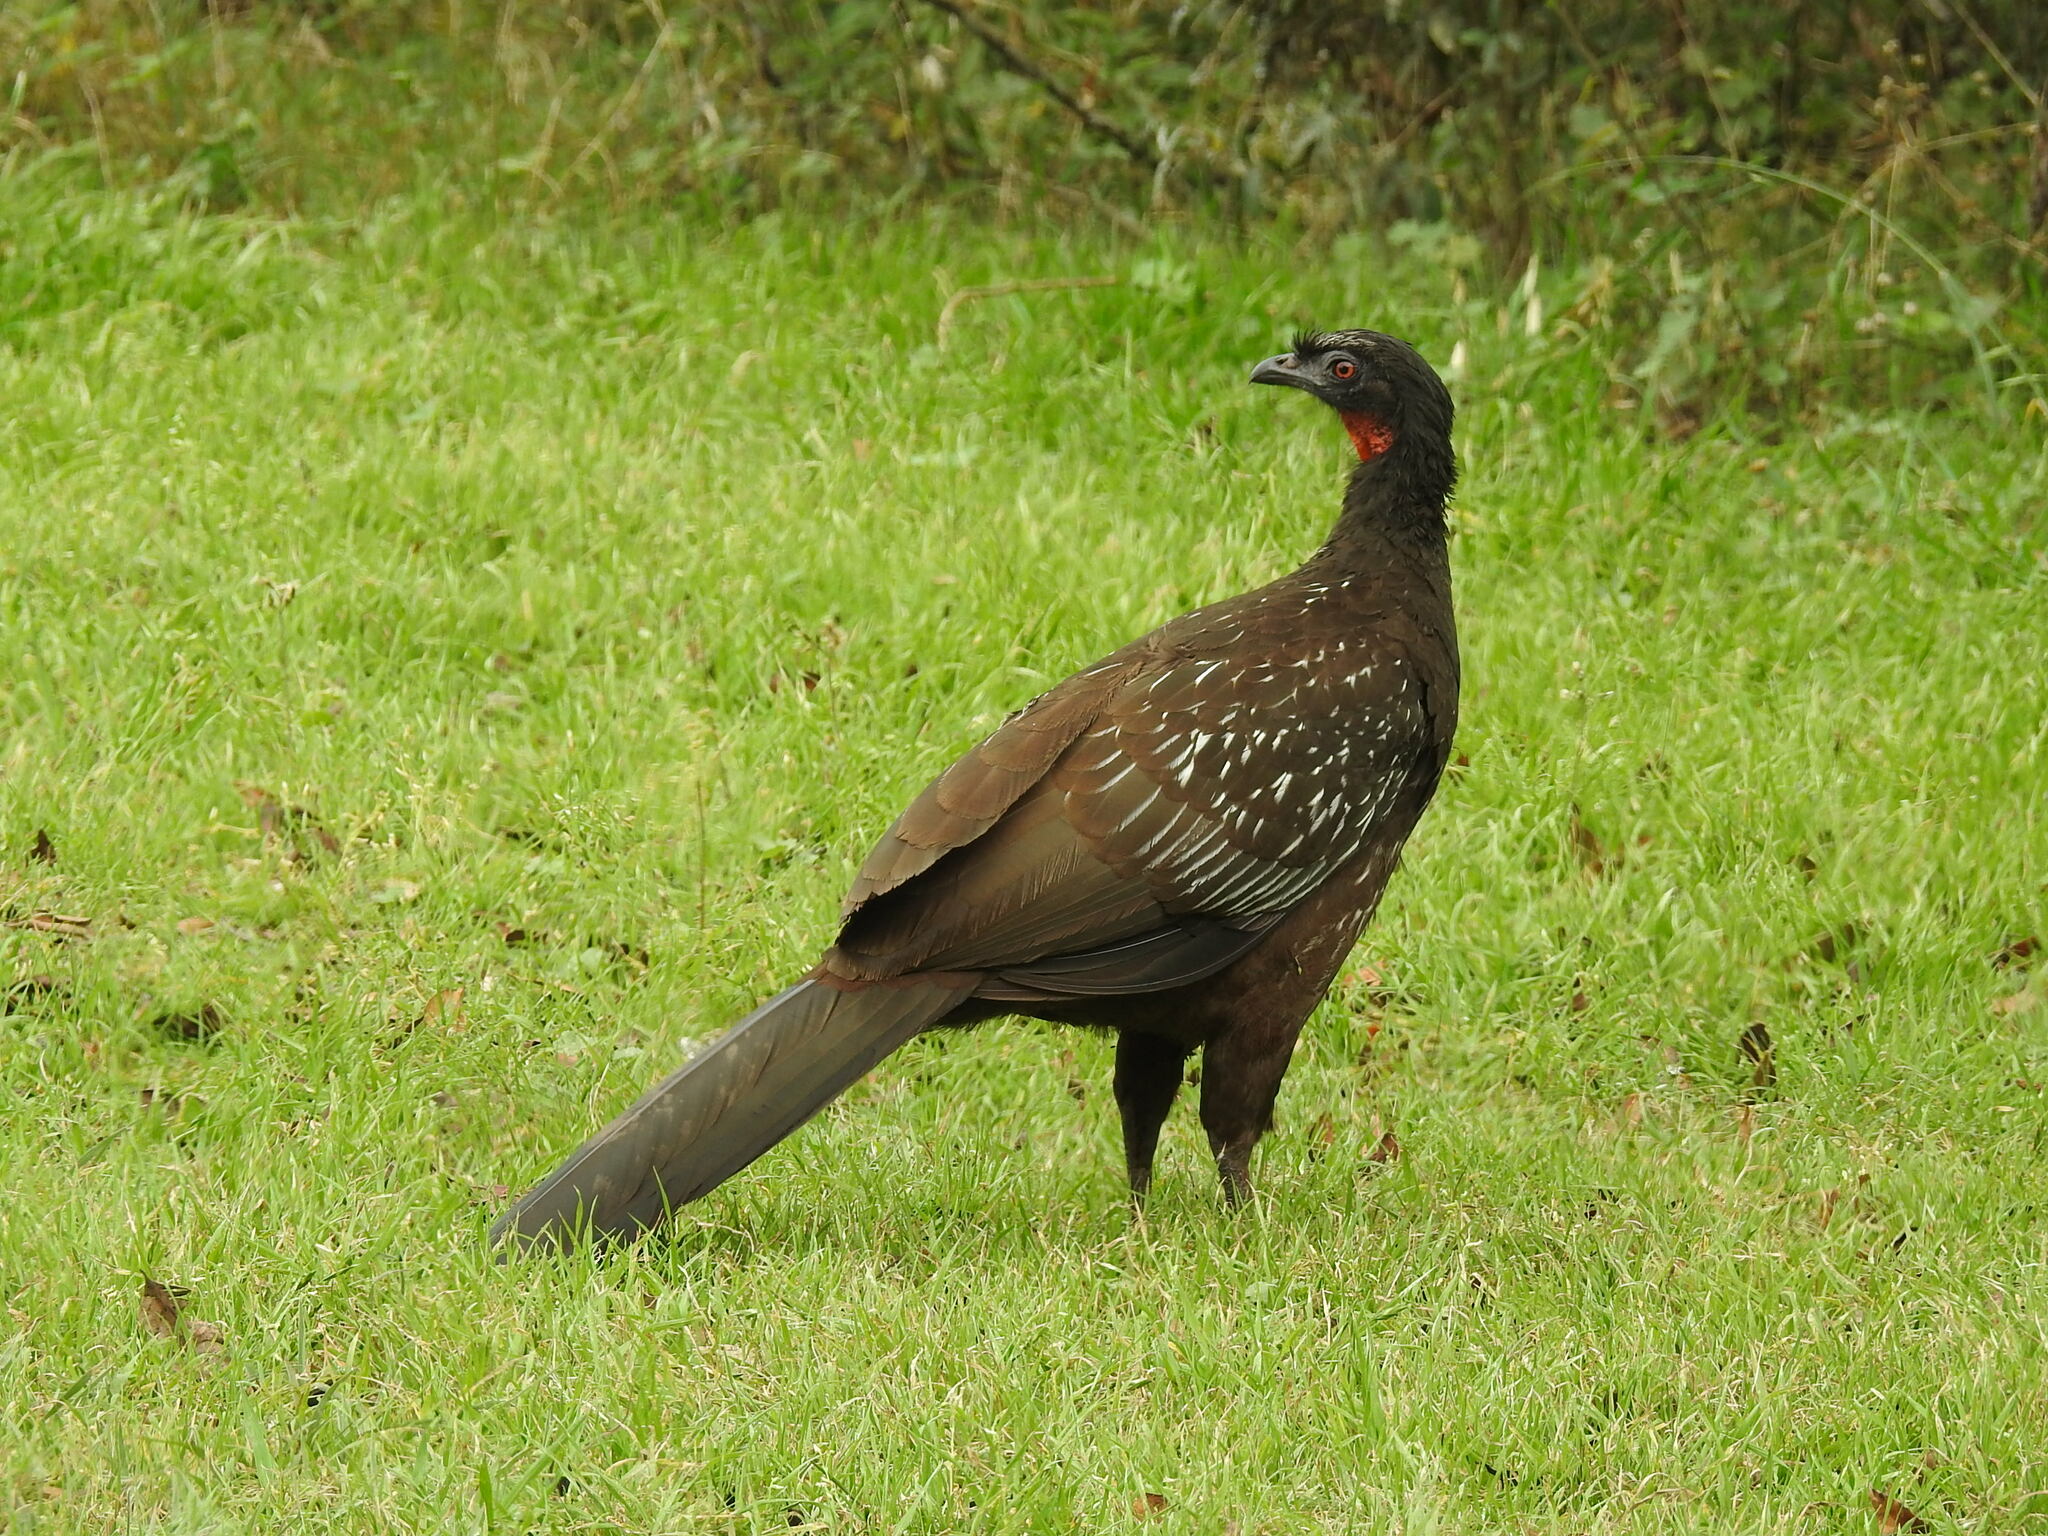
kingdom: Animalia
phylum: Chordata
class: Aves
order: Galliformes
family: Cracidae
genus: Penelope
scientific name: Penelope bridgesi
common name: Yungas guan
